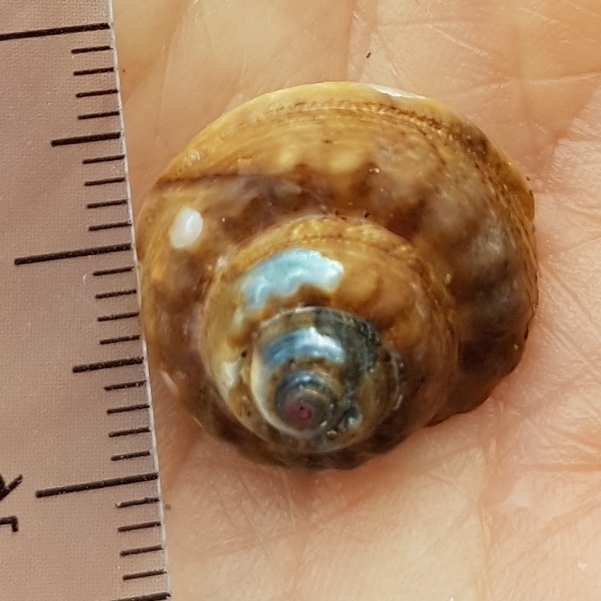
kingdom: Animalia
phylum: Mollusca
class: Gastropoda
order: Trochida
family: Trochidae
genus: Gibbula
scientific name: Gibbula magus
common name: Turban top shell
